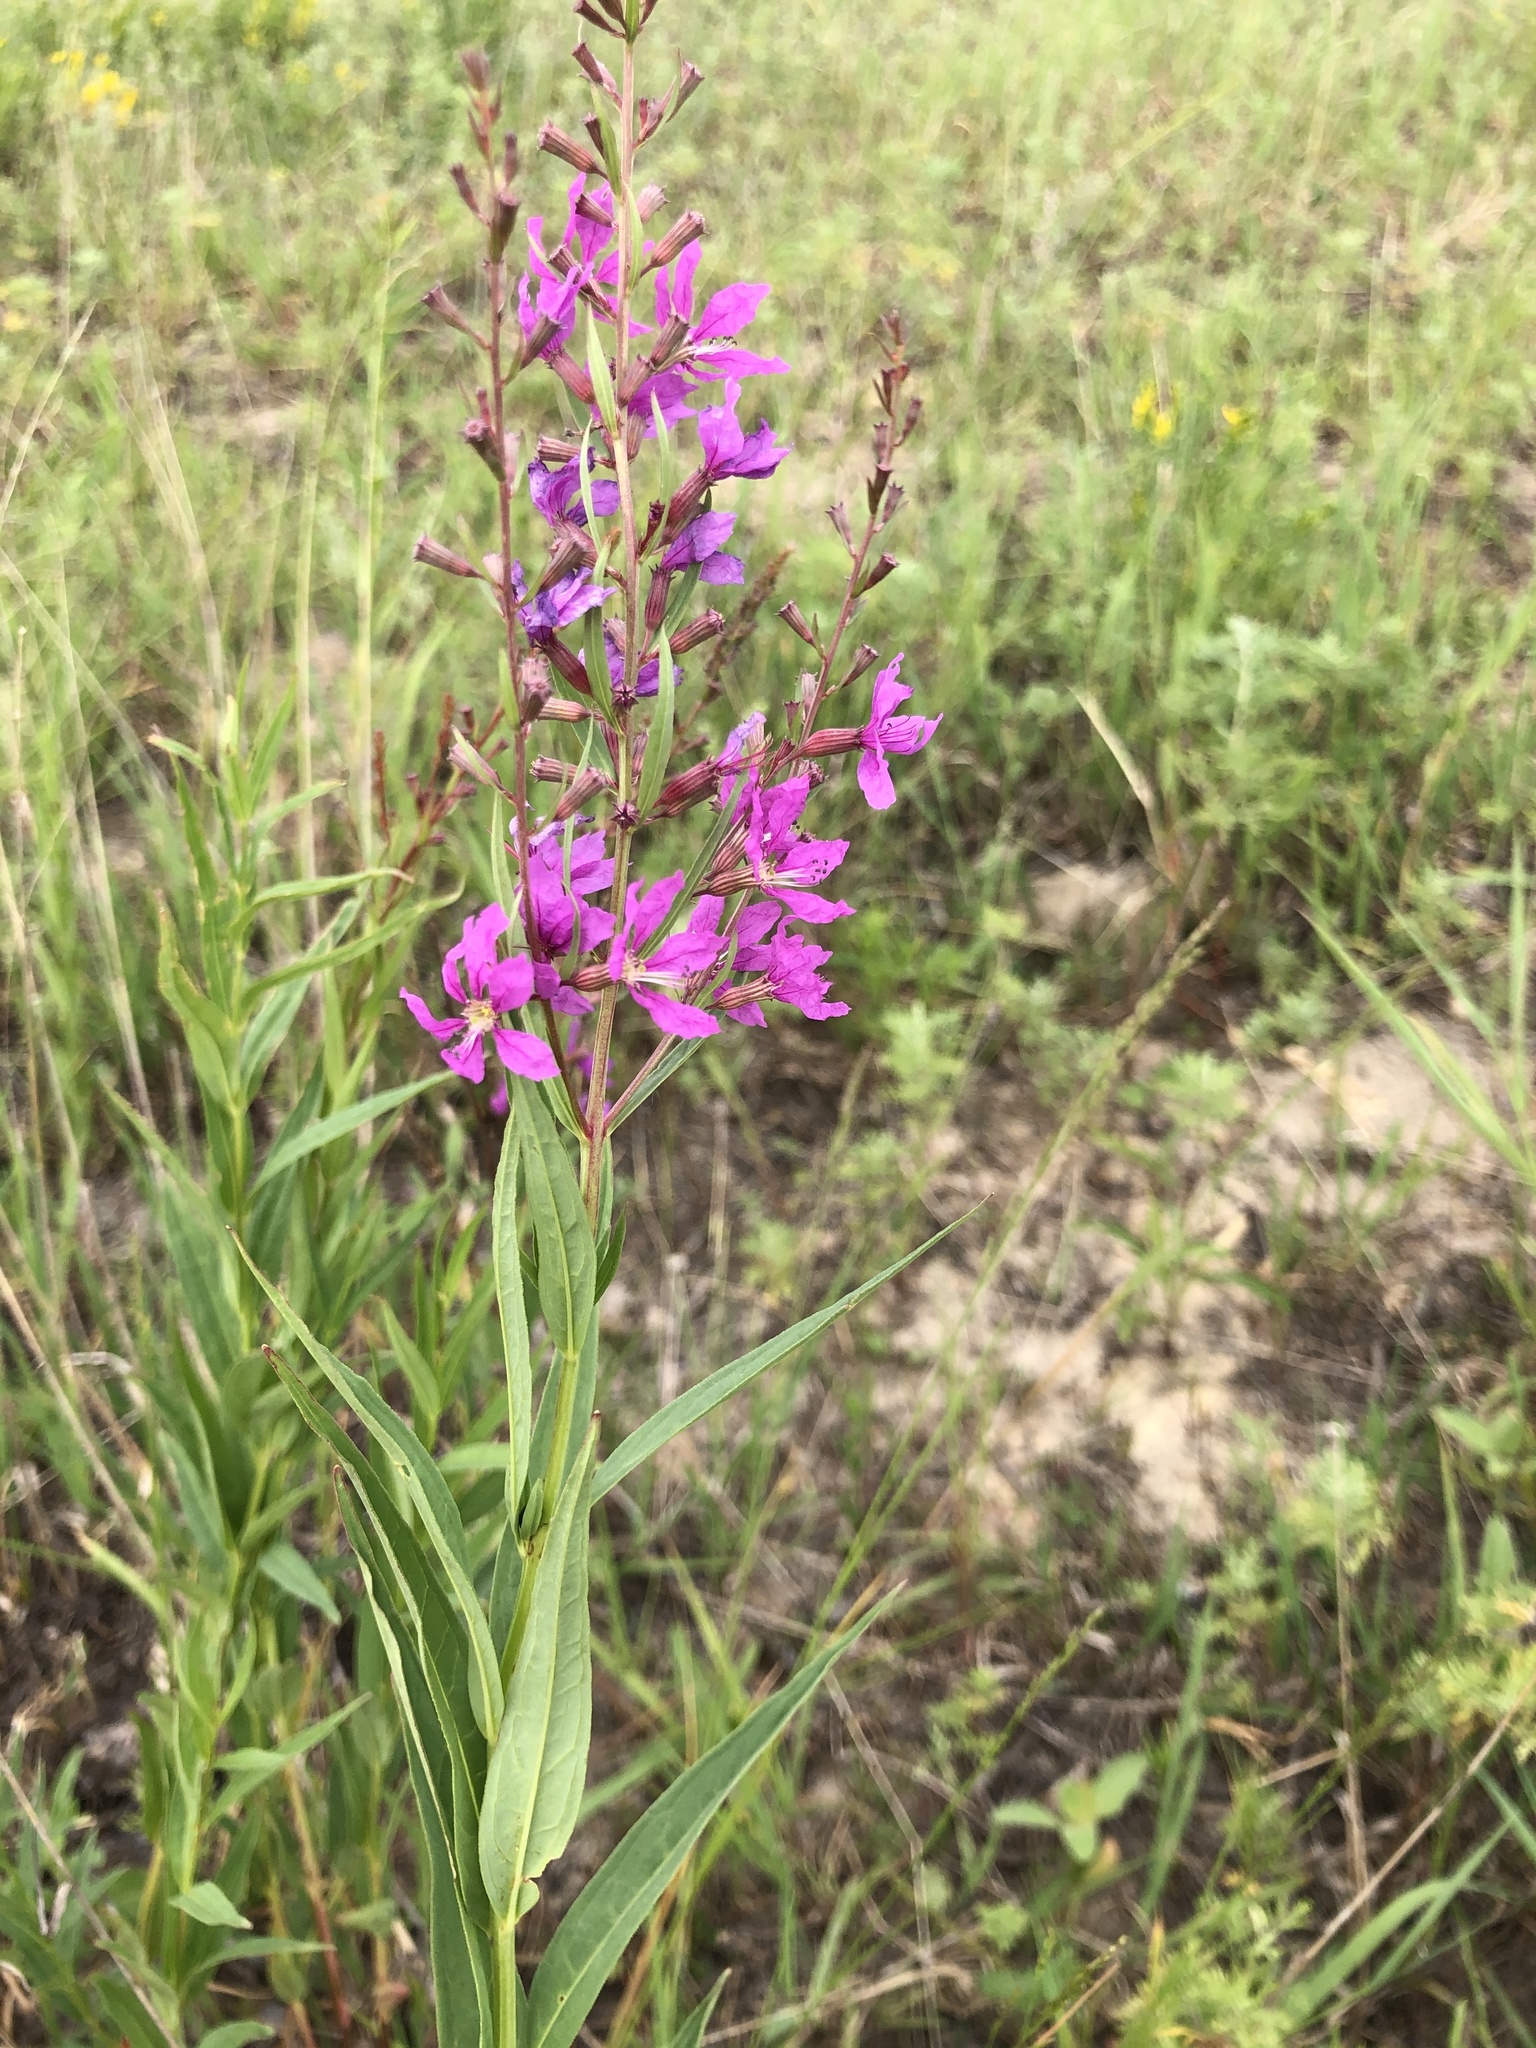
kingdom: Plantae
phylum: Tracheophyta
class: Magnoliopsida
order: Myrtales
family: Lythraceae
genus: Lythrum
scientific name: Lythrum virgatum
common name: European wand loosestrife
